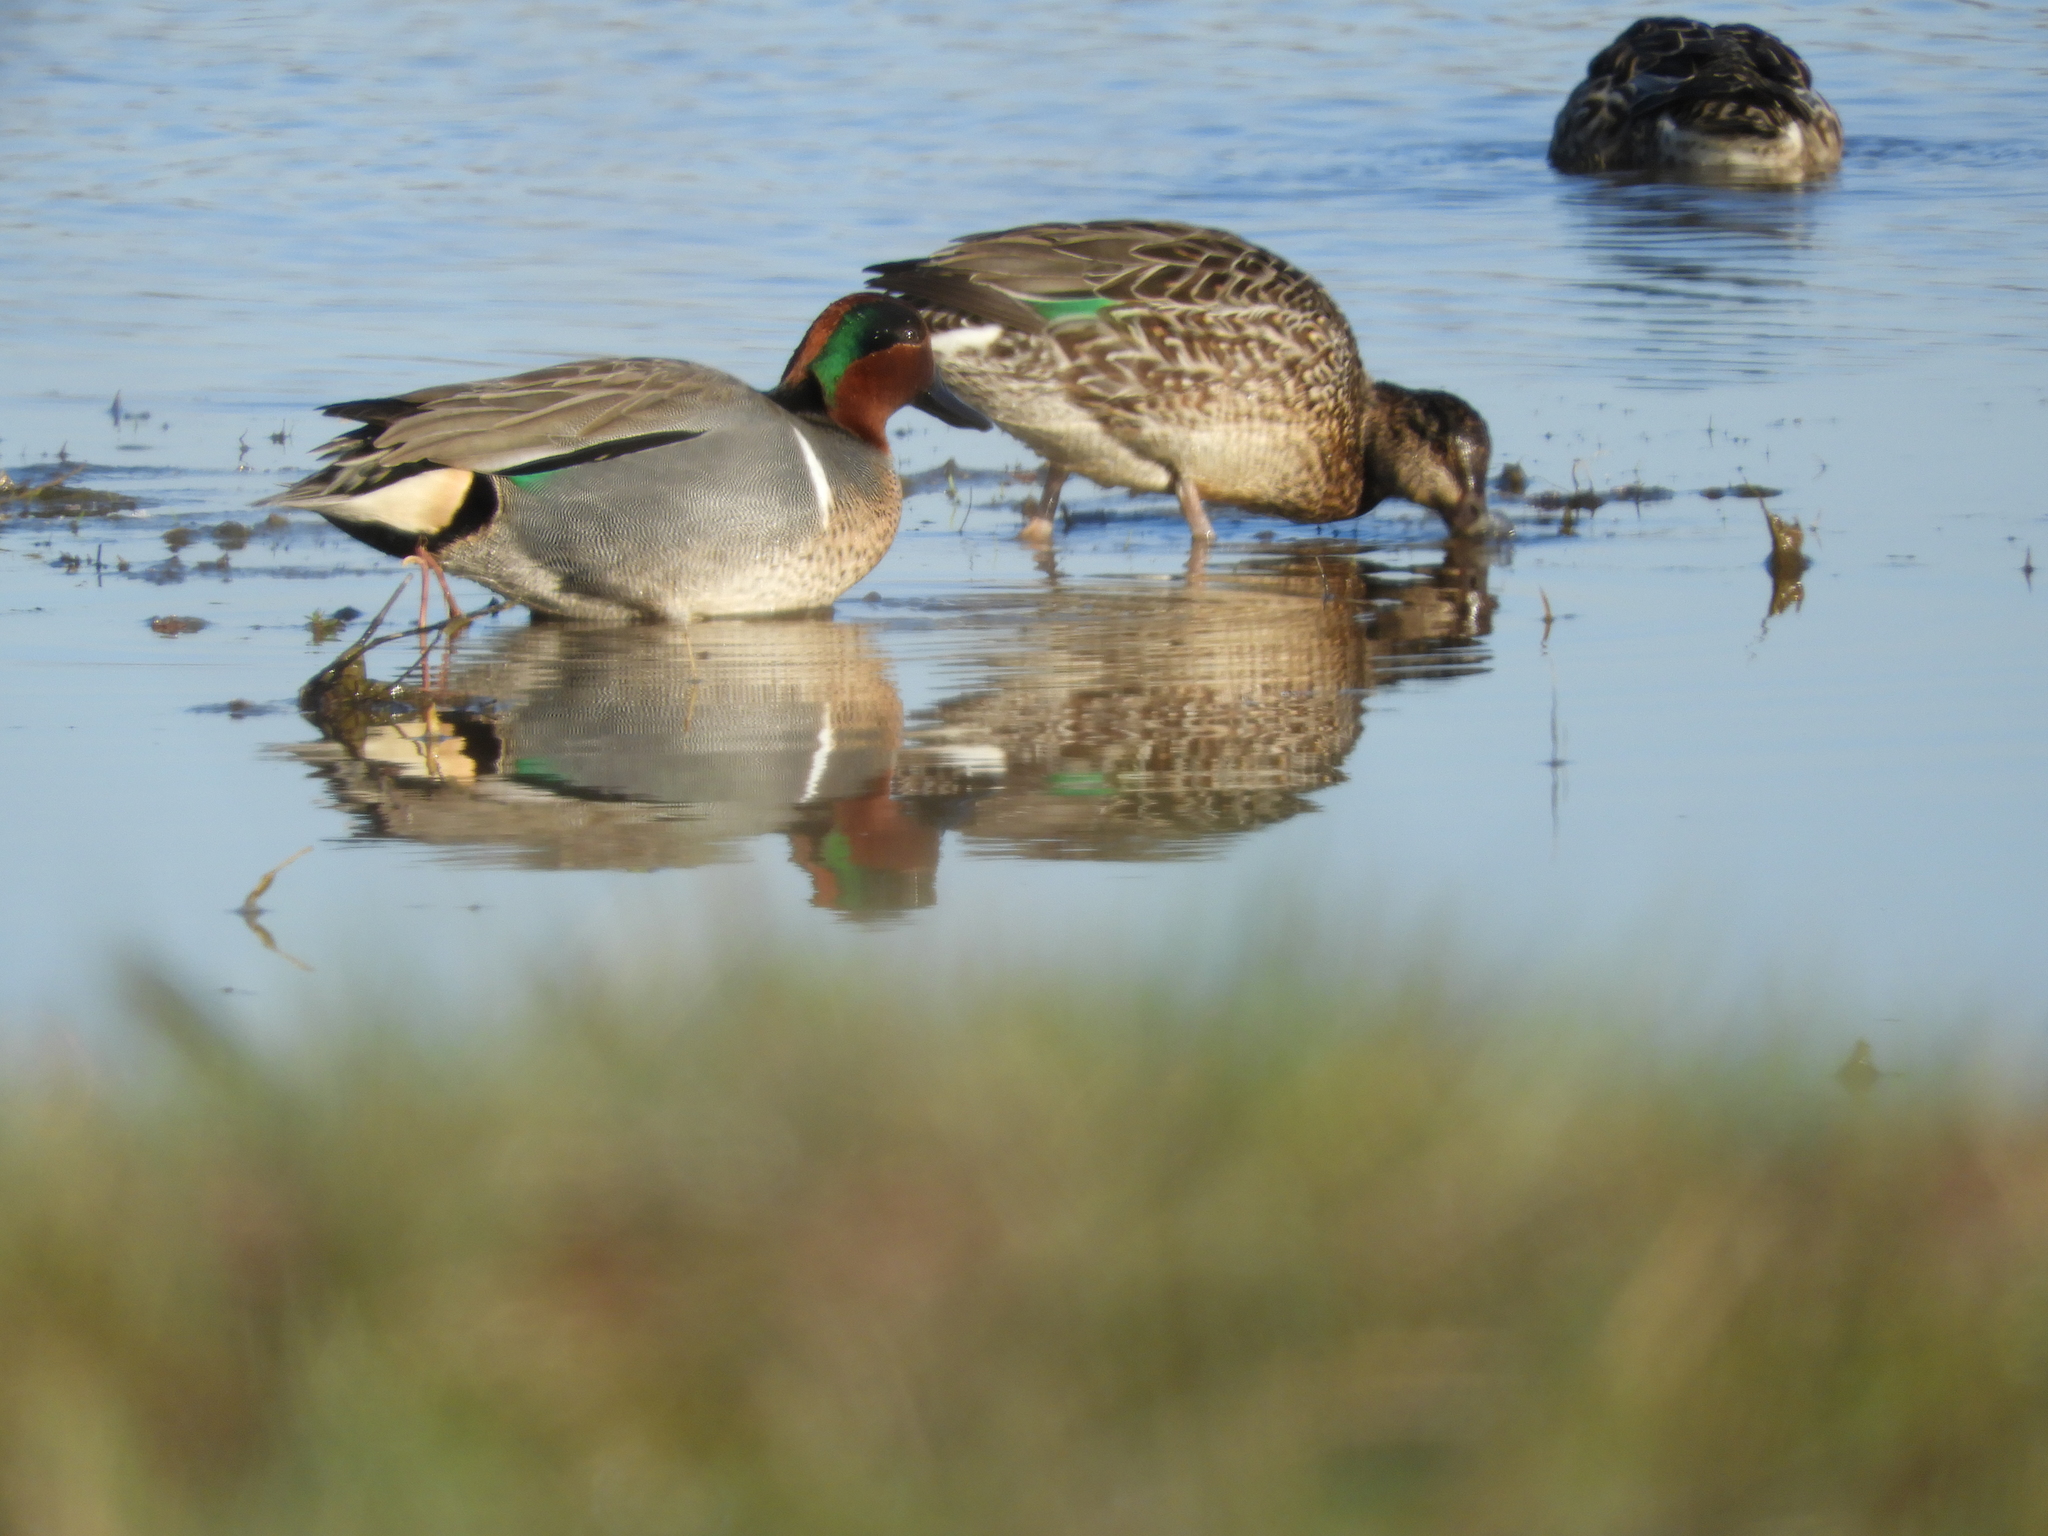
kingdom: Animalia
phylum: Chordata
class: Aves
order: Anseriformes
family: Anatidae
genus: Anas
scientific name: Anas carolinensis
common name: Green-winged teal
